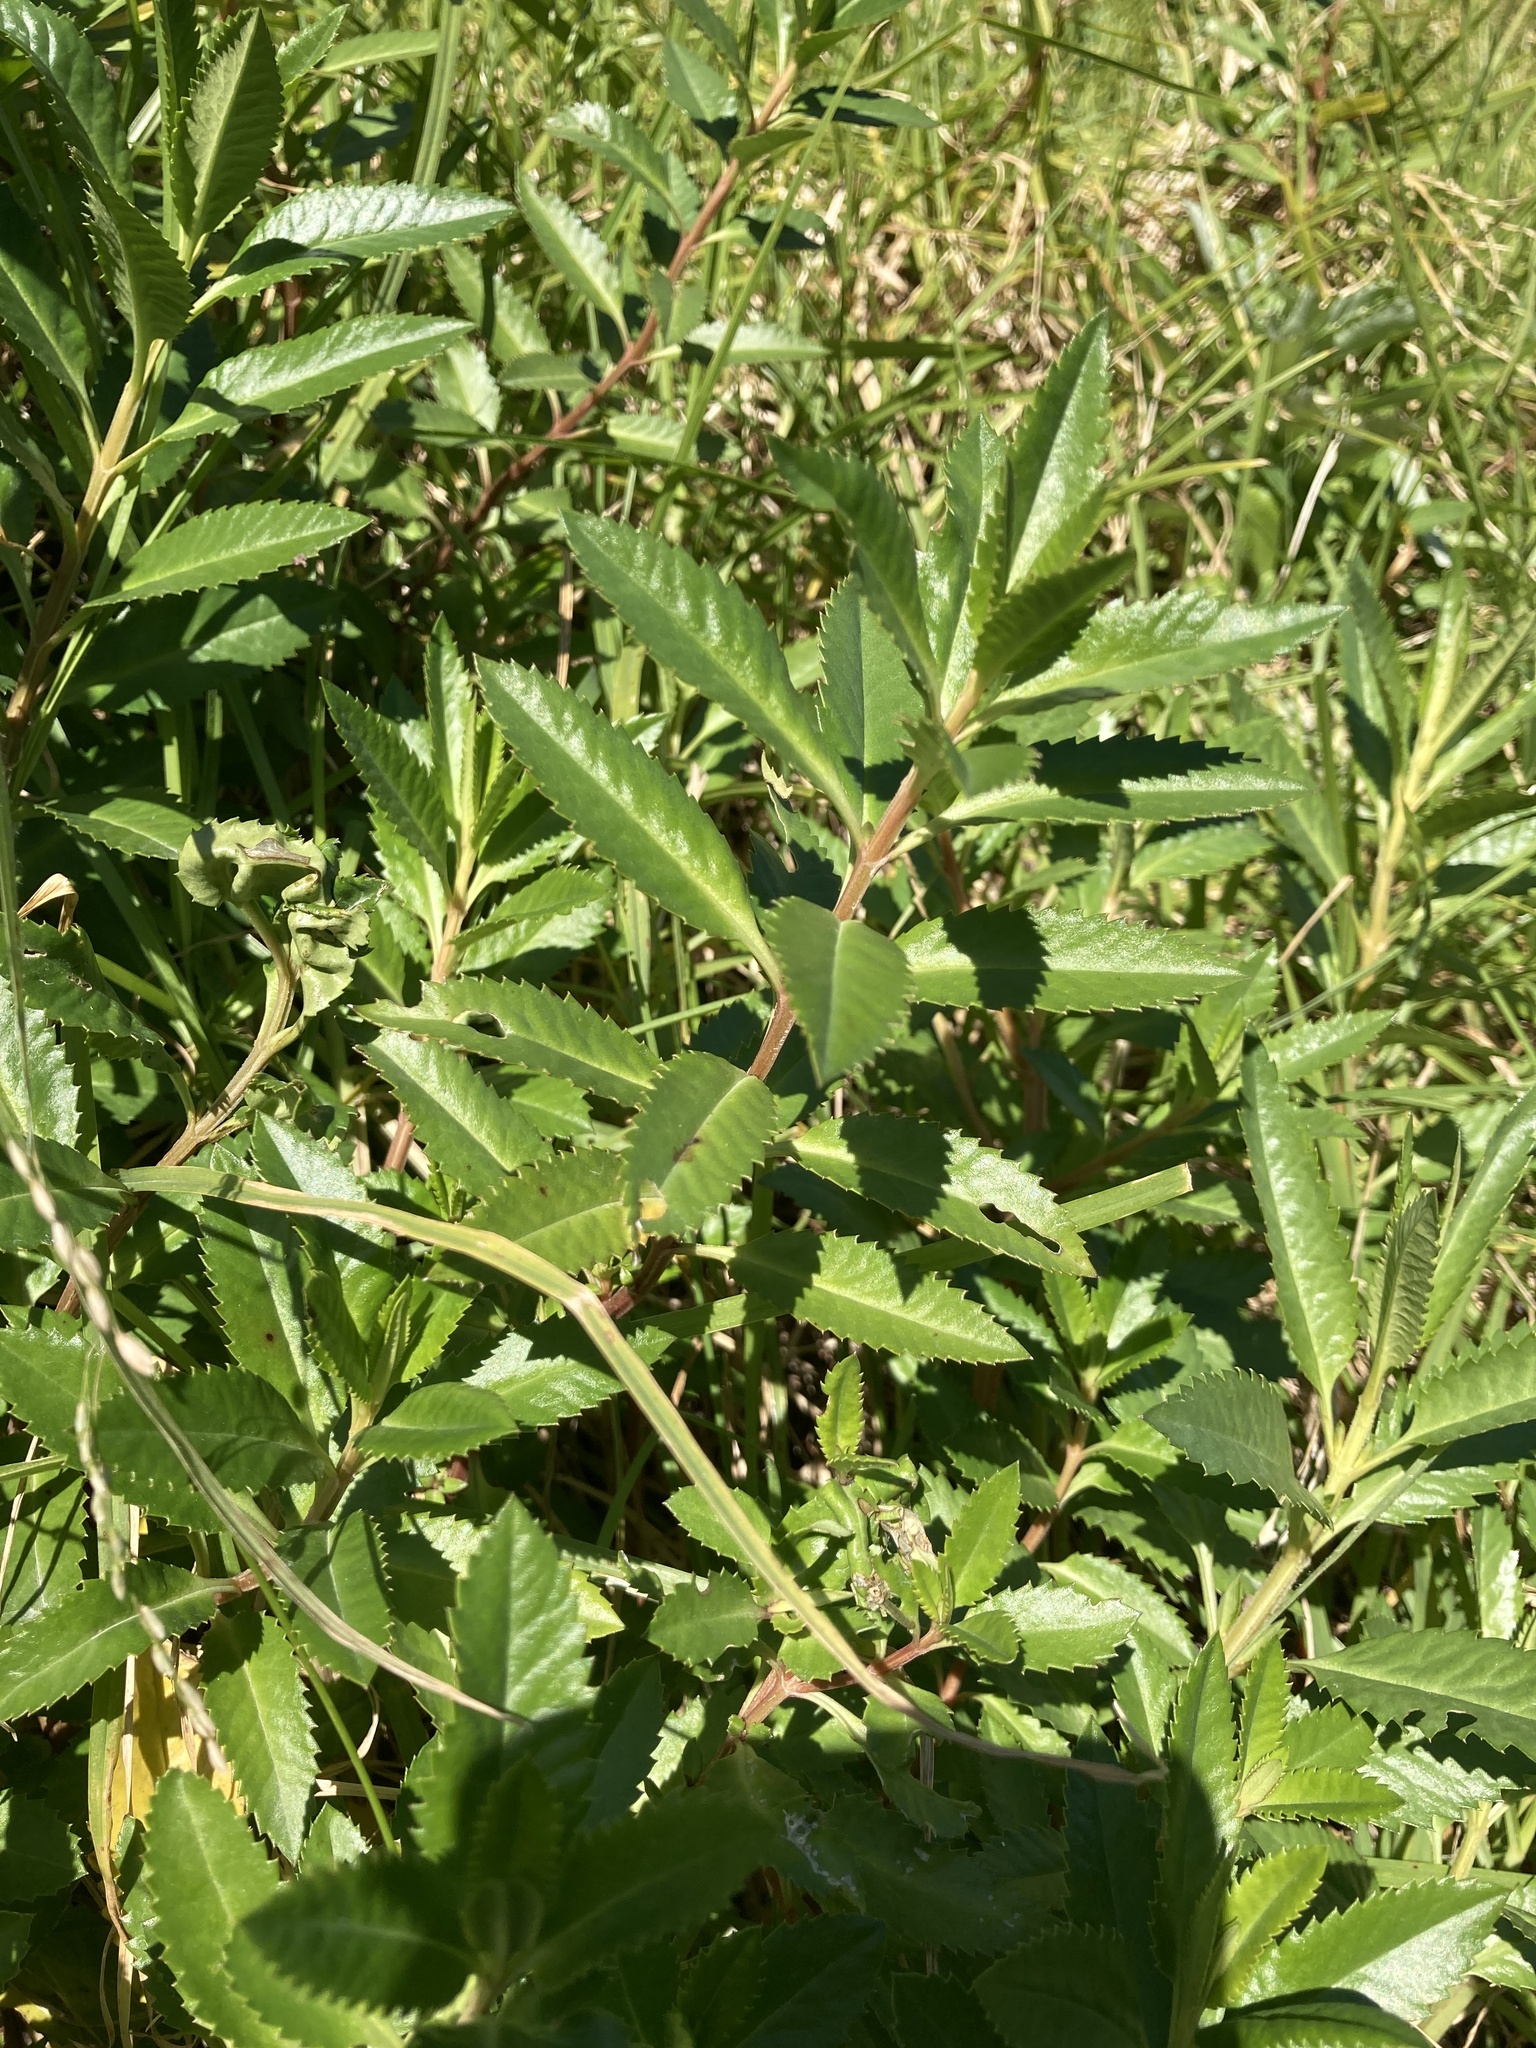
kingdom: Plantae
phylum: Tracheophyta
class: Magnoliopsida
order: Saxifragales
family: Haloragaceae
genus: Haloragis
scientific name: Haloragis erecta
